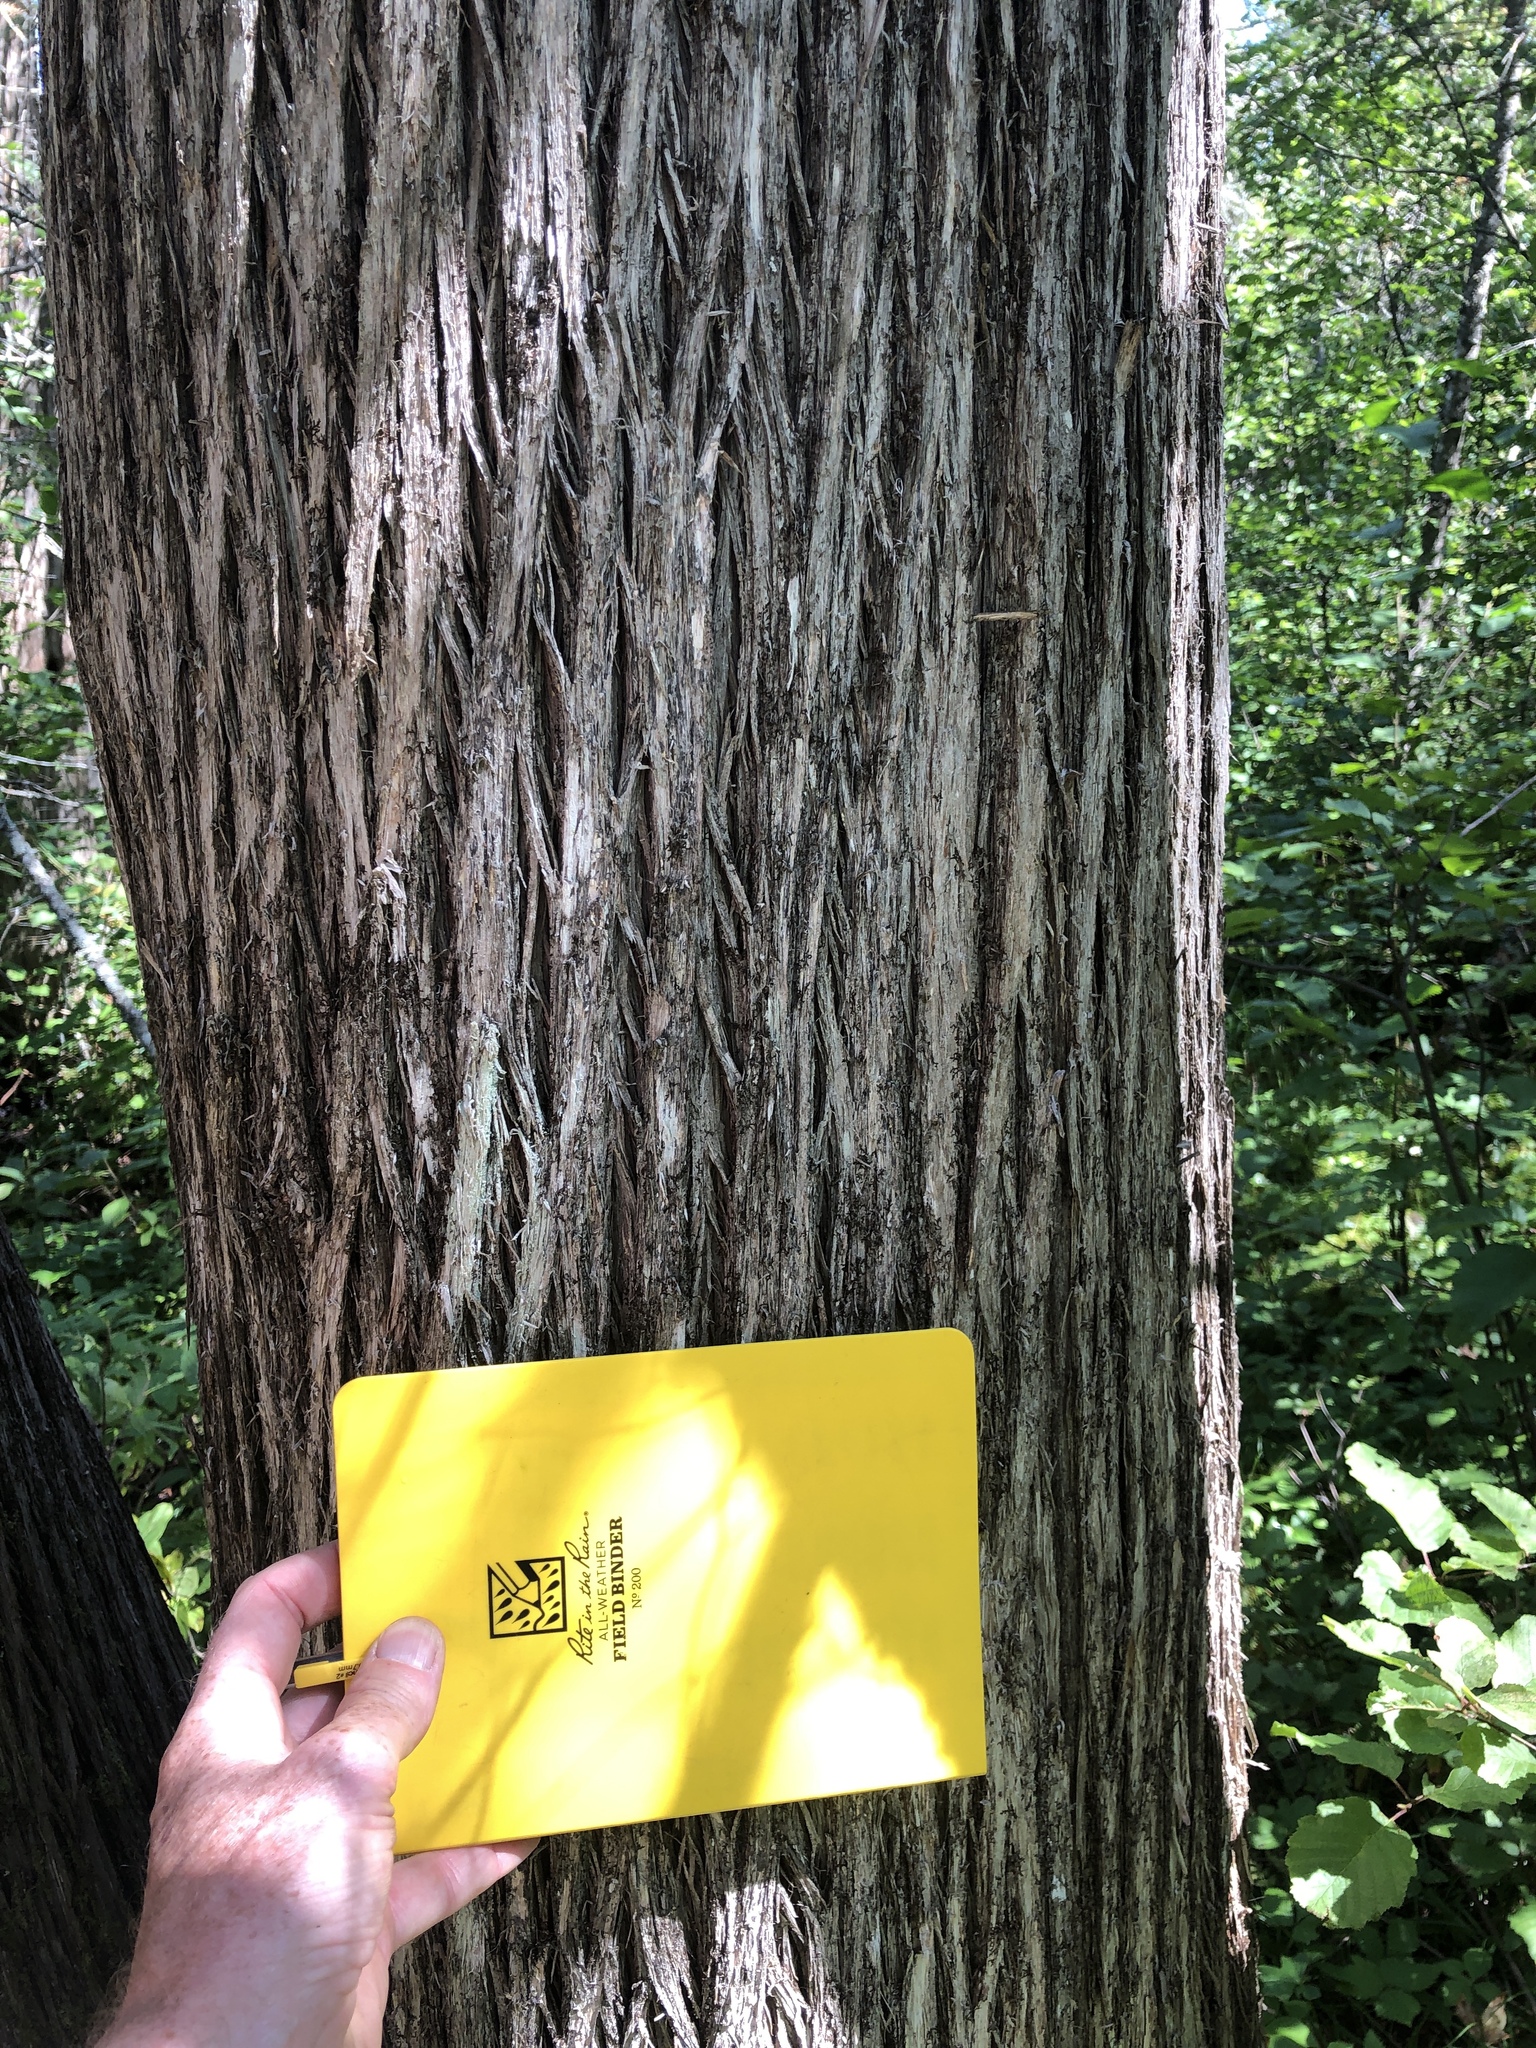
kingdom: Plantae
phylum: Tracheophyta
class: Pinopsida
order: Pinales
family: Cupressaceae
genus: Thuja
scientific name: Thuja occidentalis
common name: Northern white-cedar
